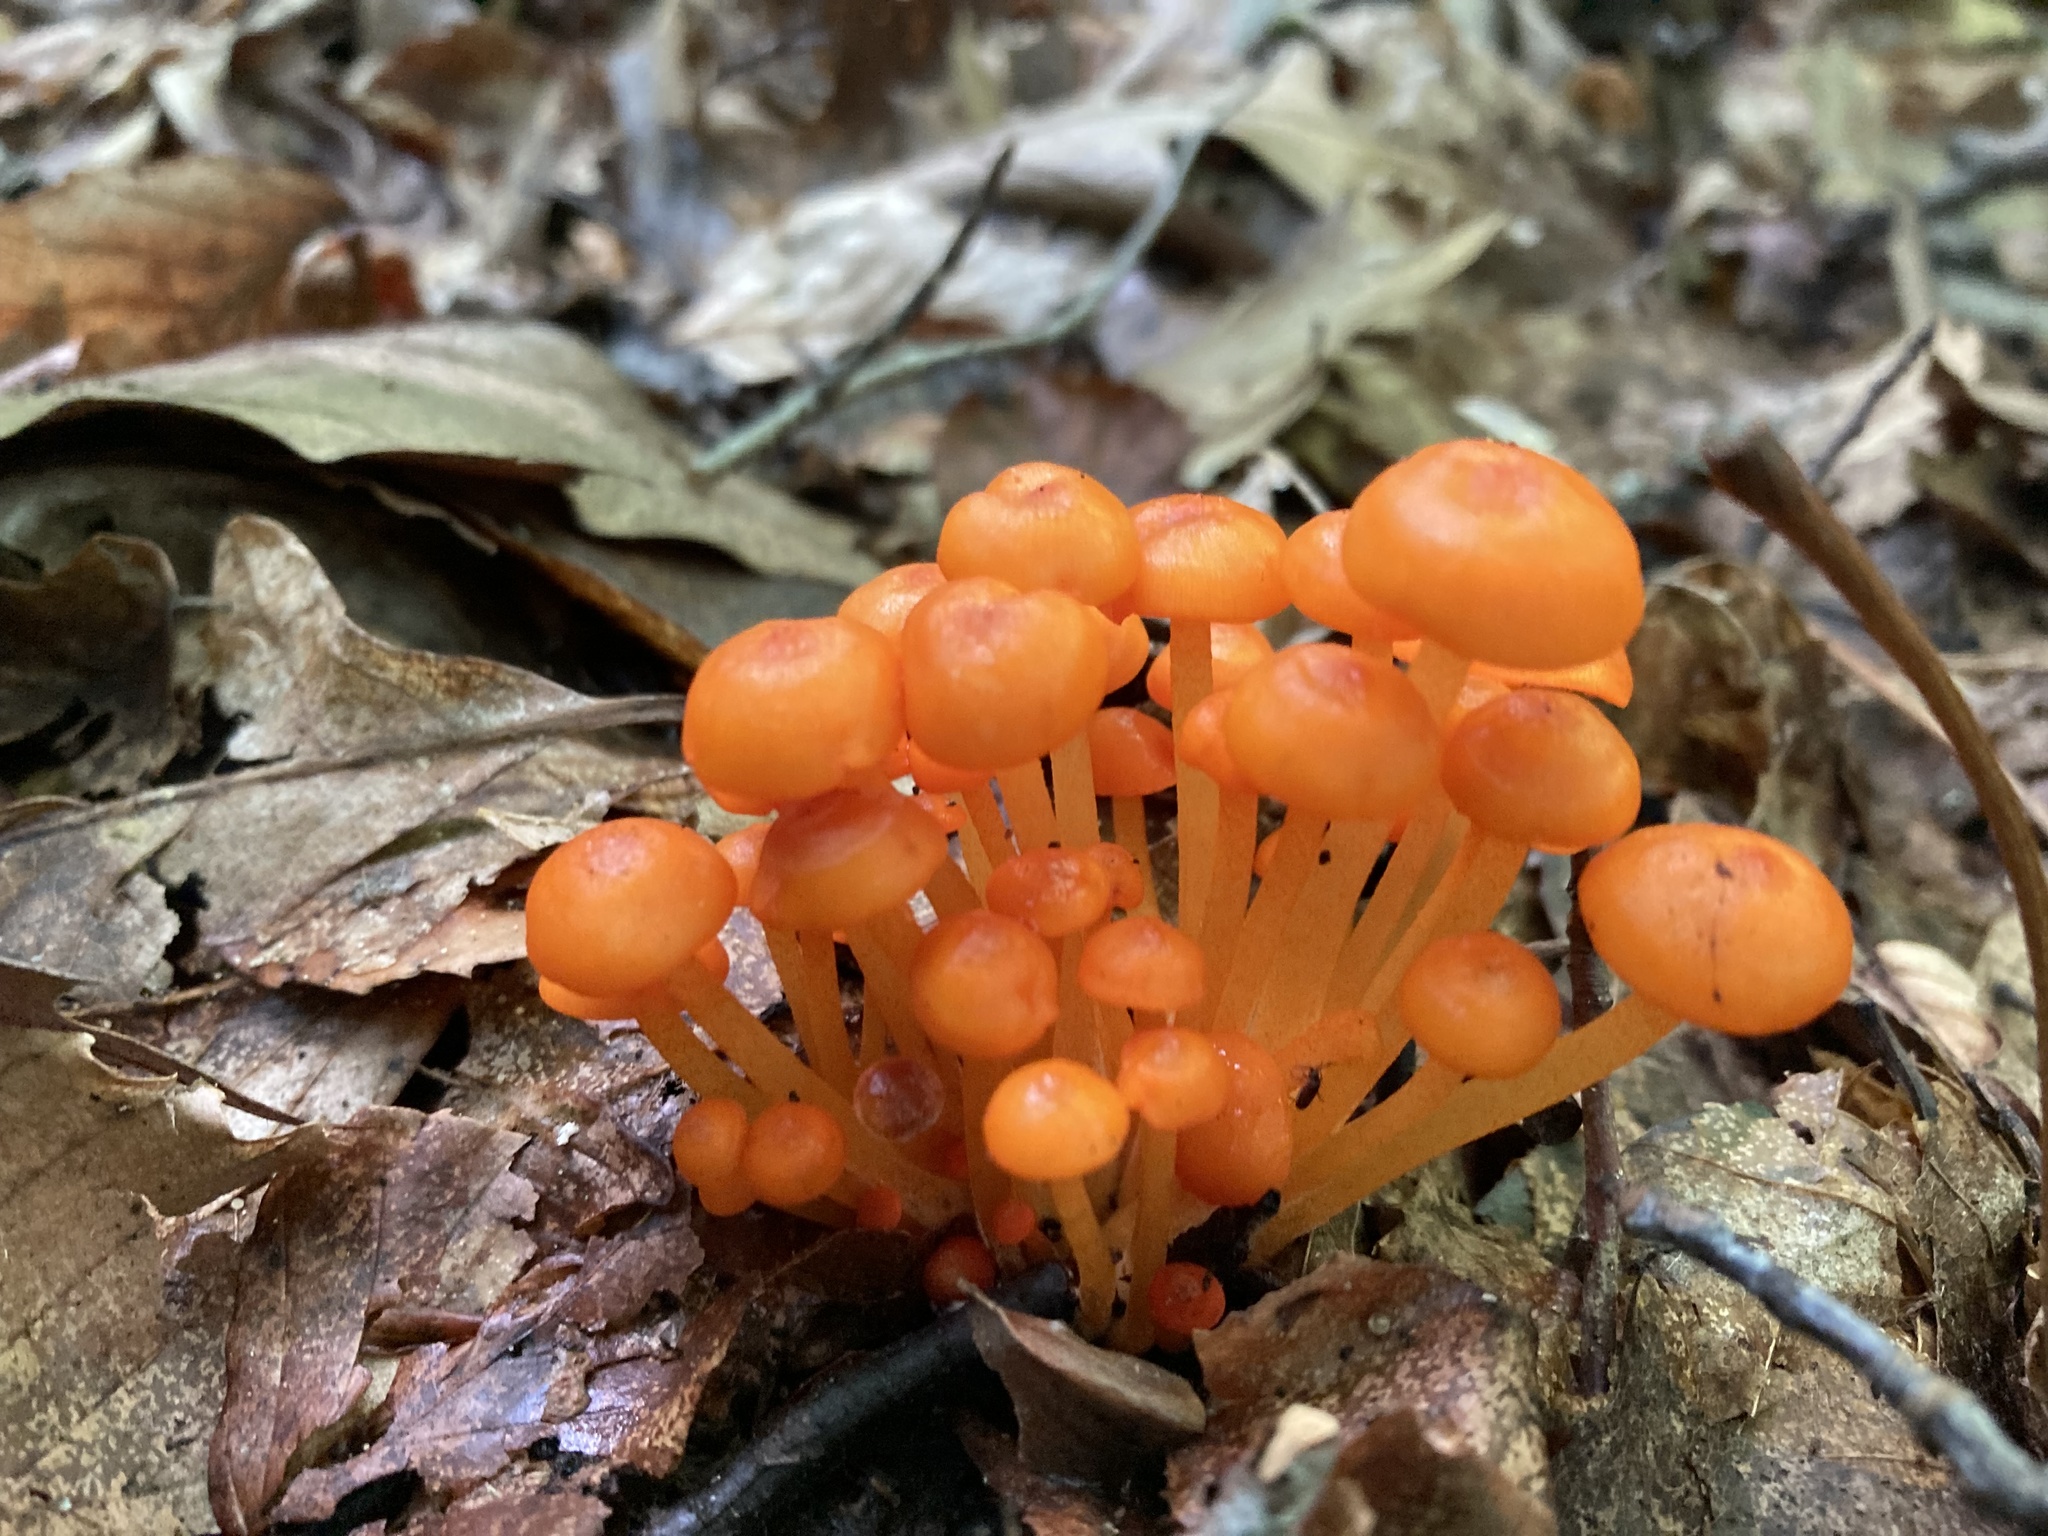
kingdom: Fungi
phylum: Basidiomycota
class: Agaricomycetes
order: Agaricales
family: Mycenaceae
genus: Mycena
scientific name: Mycena leaiana
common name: Orange mycena
